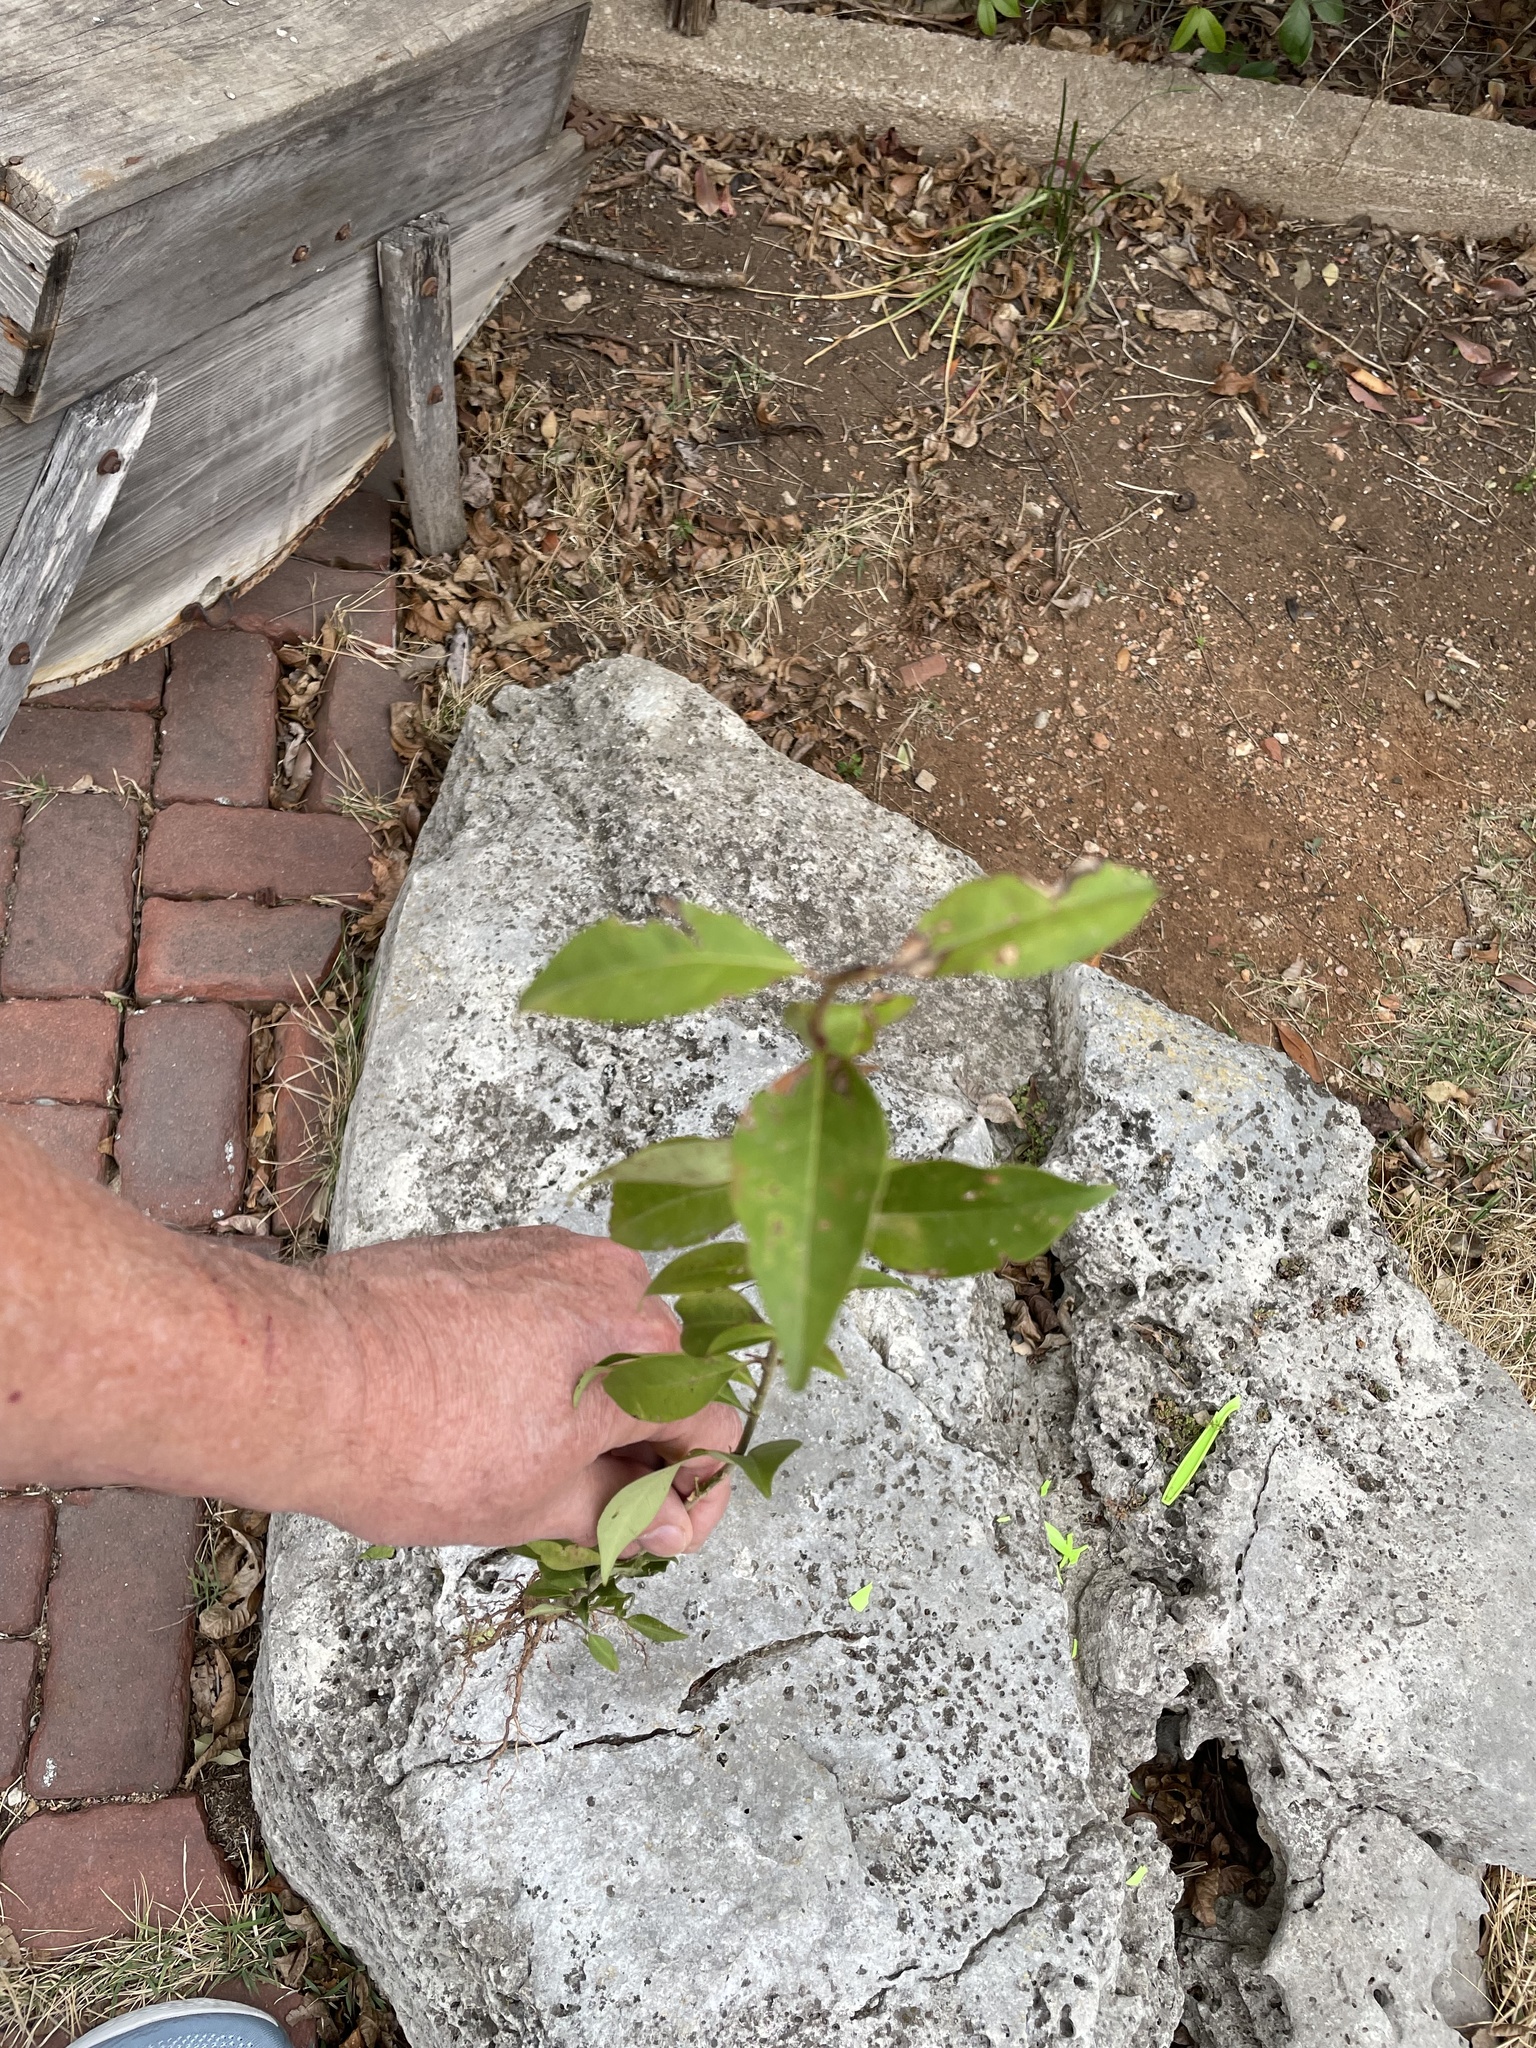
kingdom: Plantae
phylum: Tracheophyta
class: Magnoliopsida
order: Lamiales
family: Oleaceae
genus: Ligustrum
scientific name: Ligustrum lucidum
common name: Glossy privet
